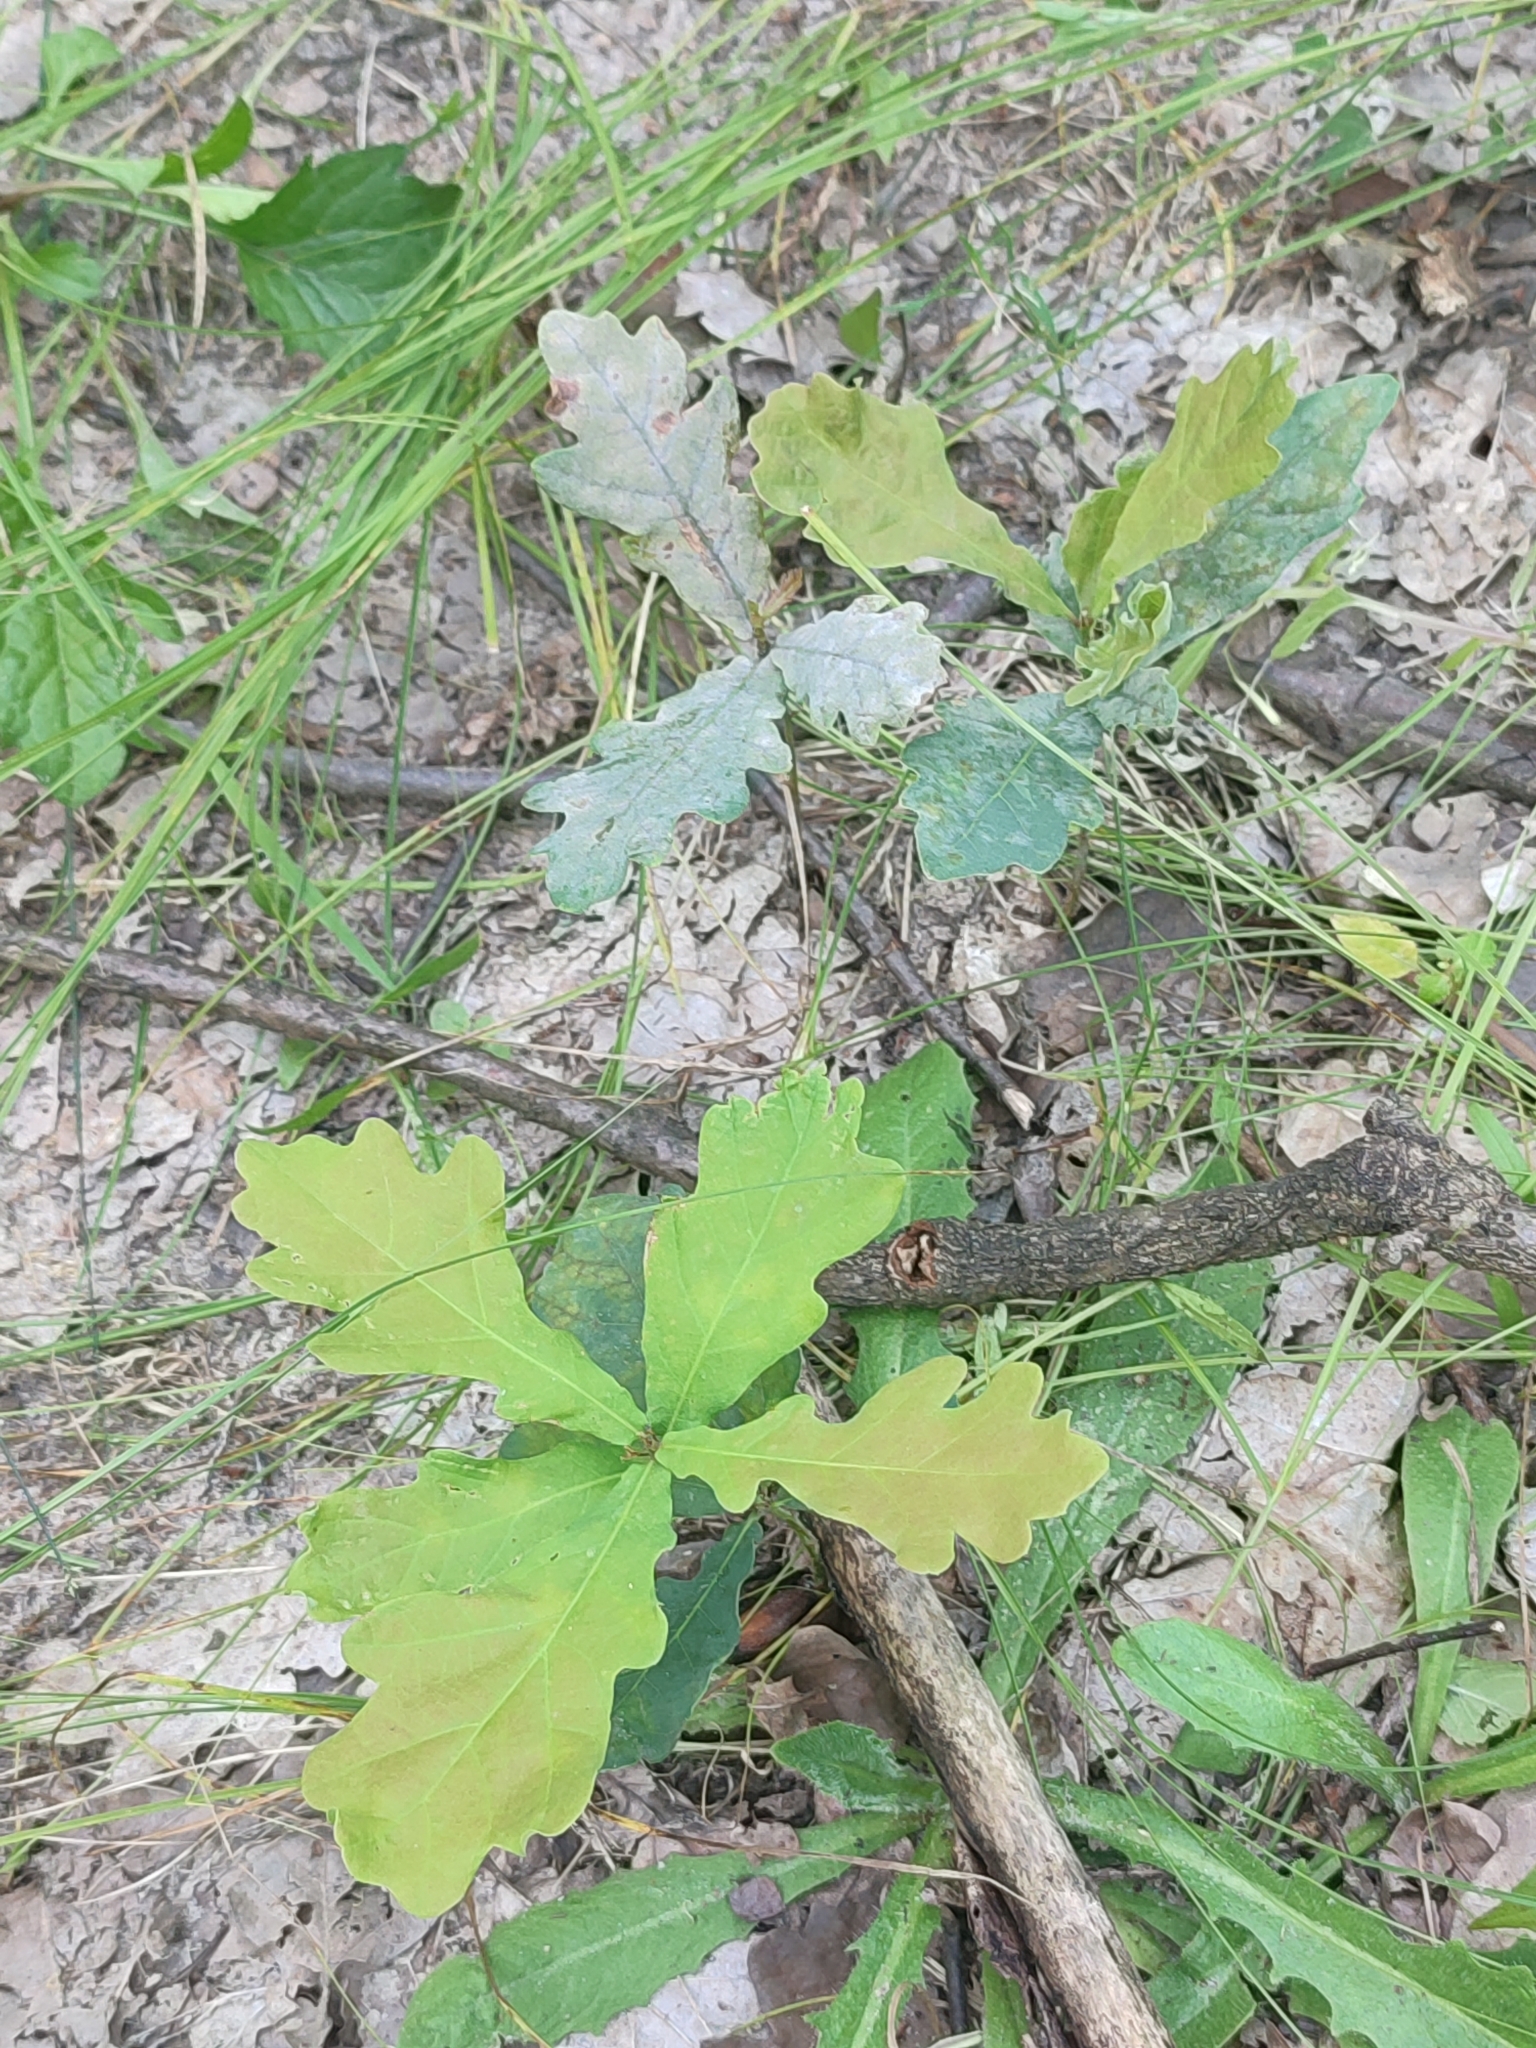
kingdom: Plantae
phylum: Tracheophyta
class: Magnoliopsida
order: Fagales
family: Fagaceae
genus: Quercus
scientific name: Quercus robur
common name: Pedunculate oak
